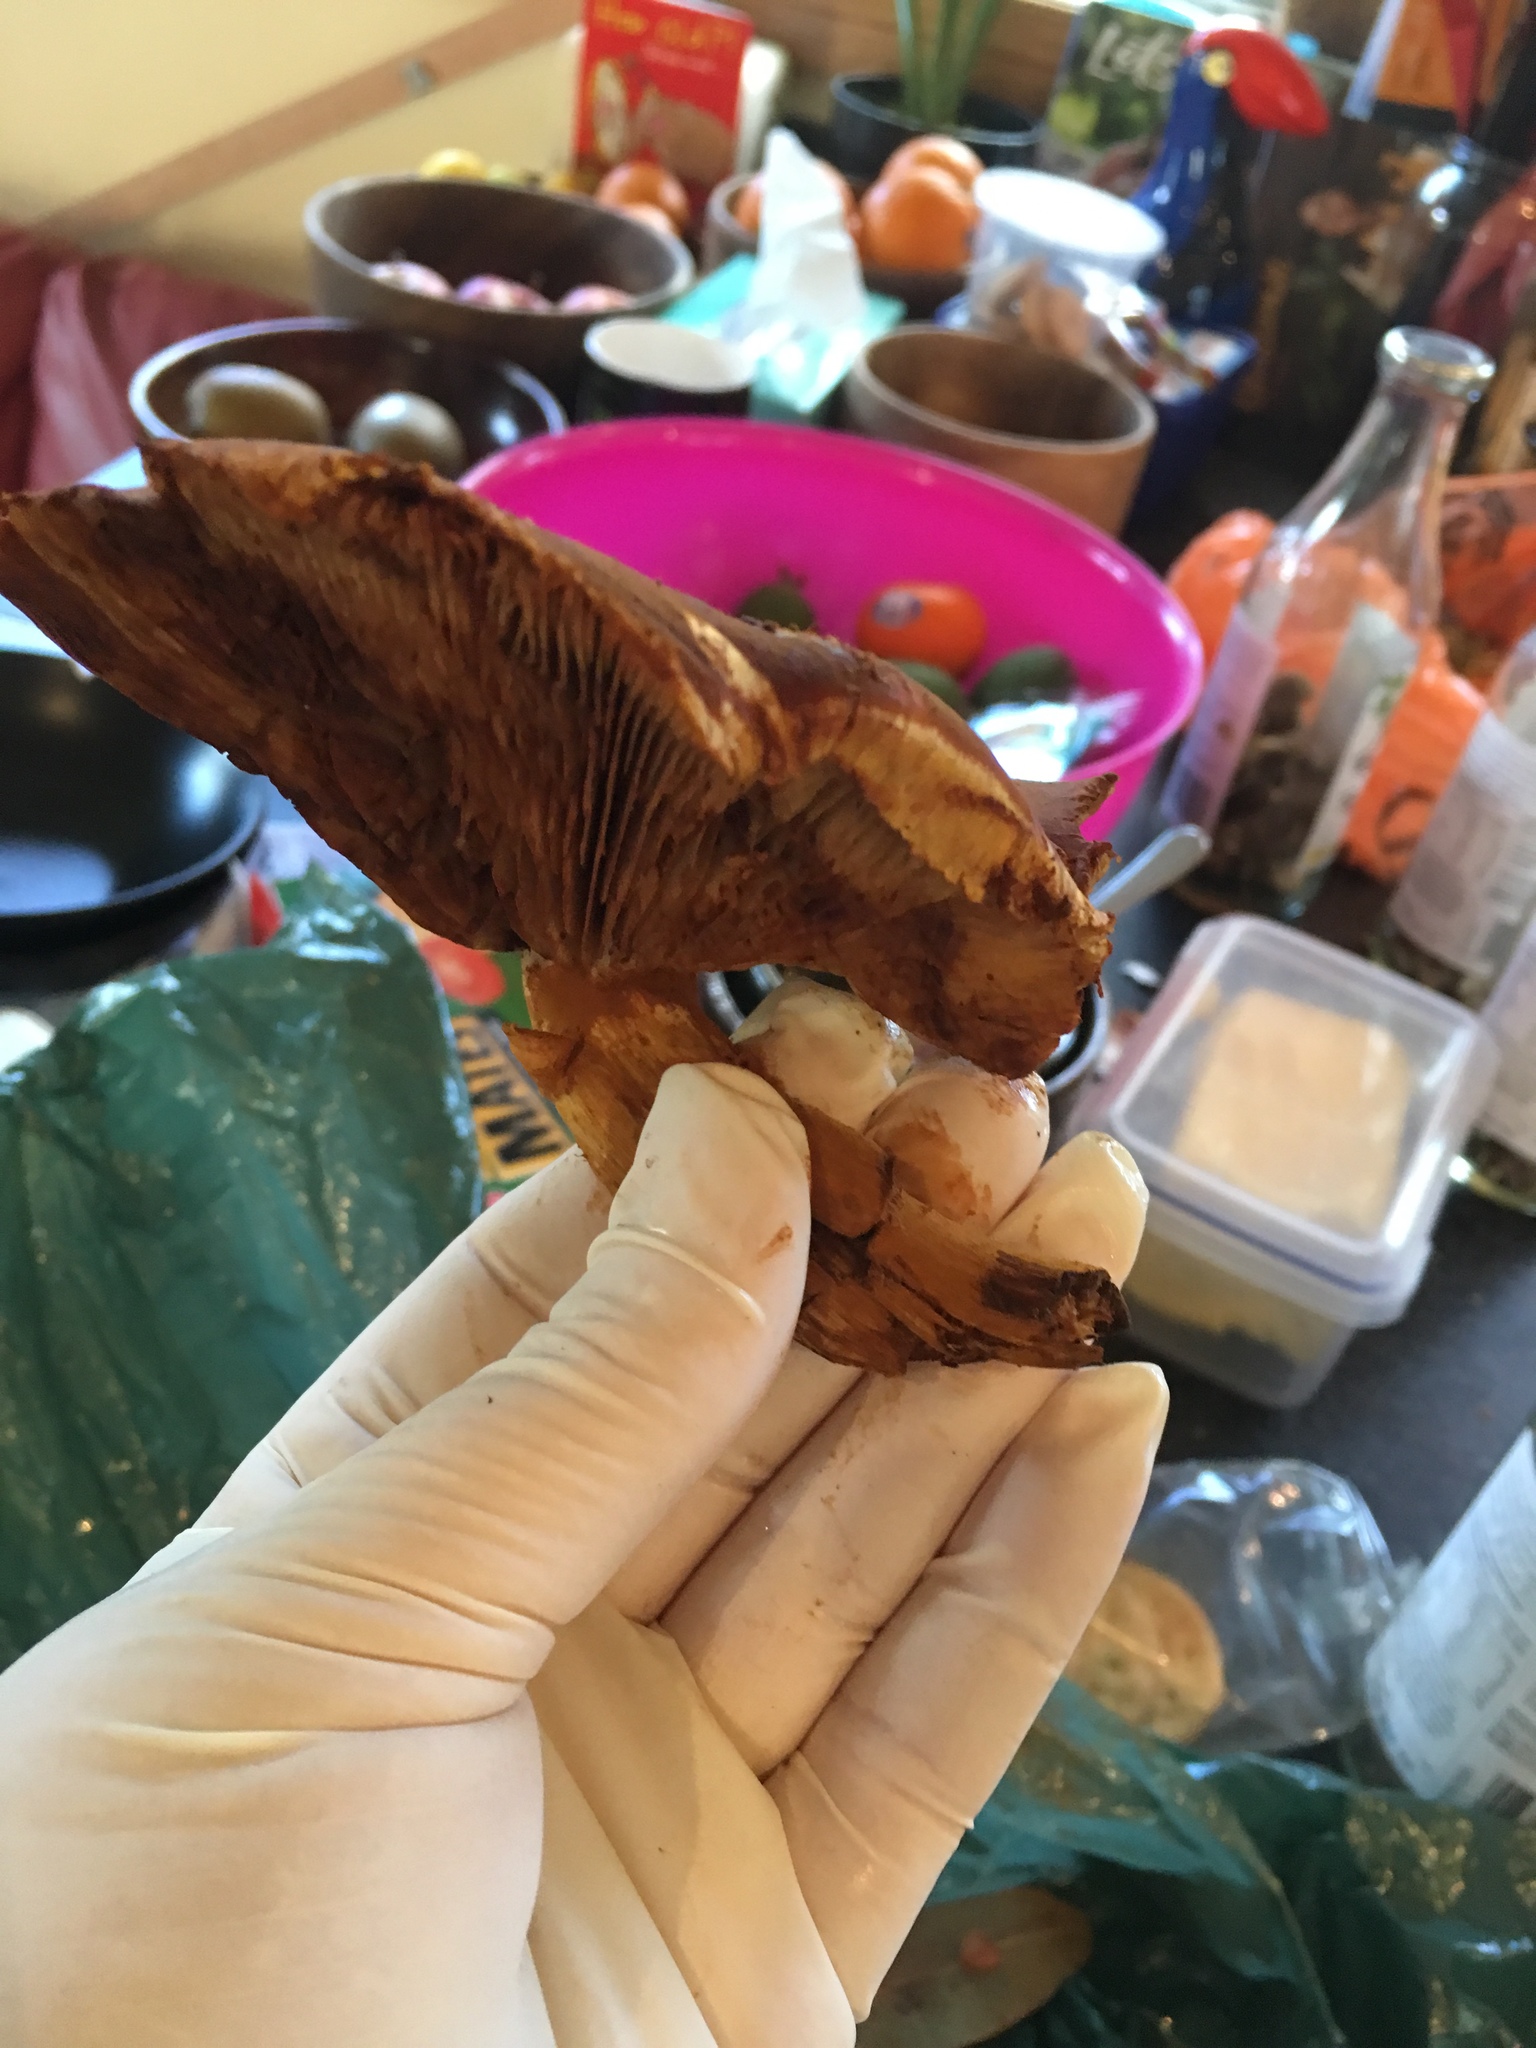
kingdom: Fungi
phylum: Basidiomycota
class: Agaricomycetes
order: Agaricales
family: Hymenogastraceae
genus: Gymnopilus
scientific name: Gymnopilus junonius
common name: Spectacular rustgill
